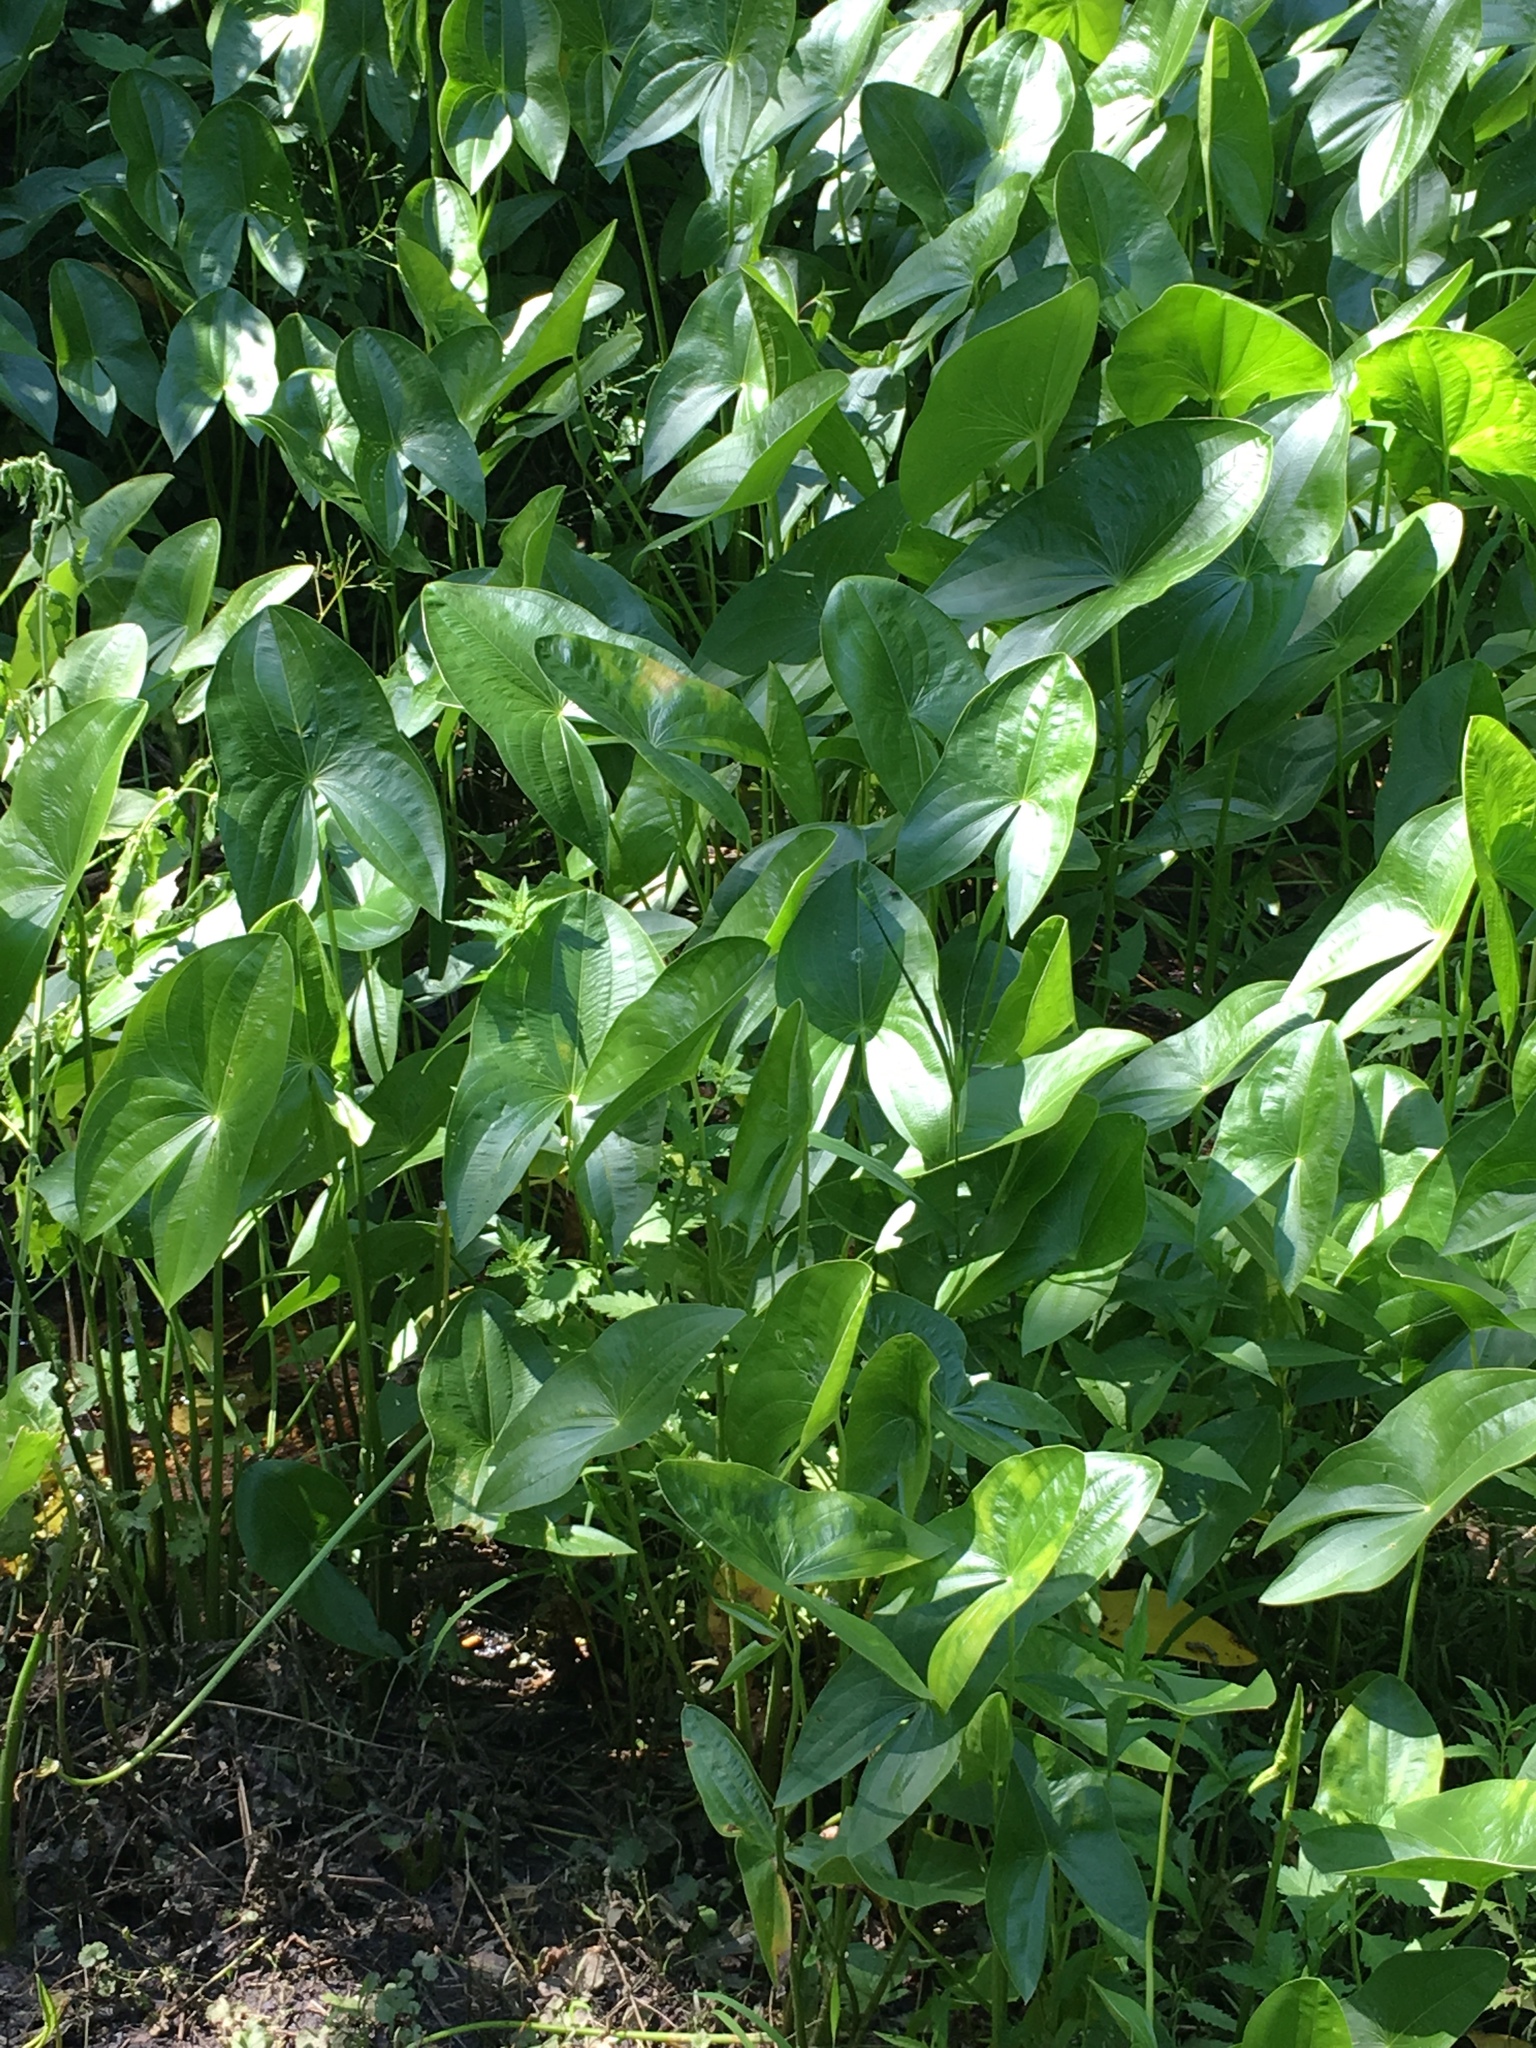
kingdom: Plantae
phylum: Tracheophyta
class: Liliopsida
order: Alismatales
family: Alismataceae
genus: Sagittaria
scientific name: Sagittaria
